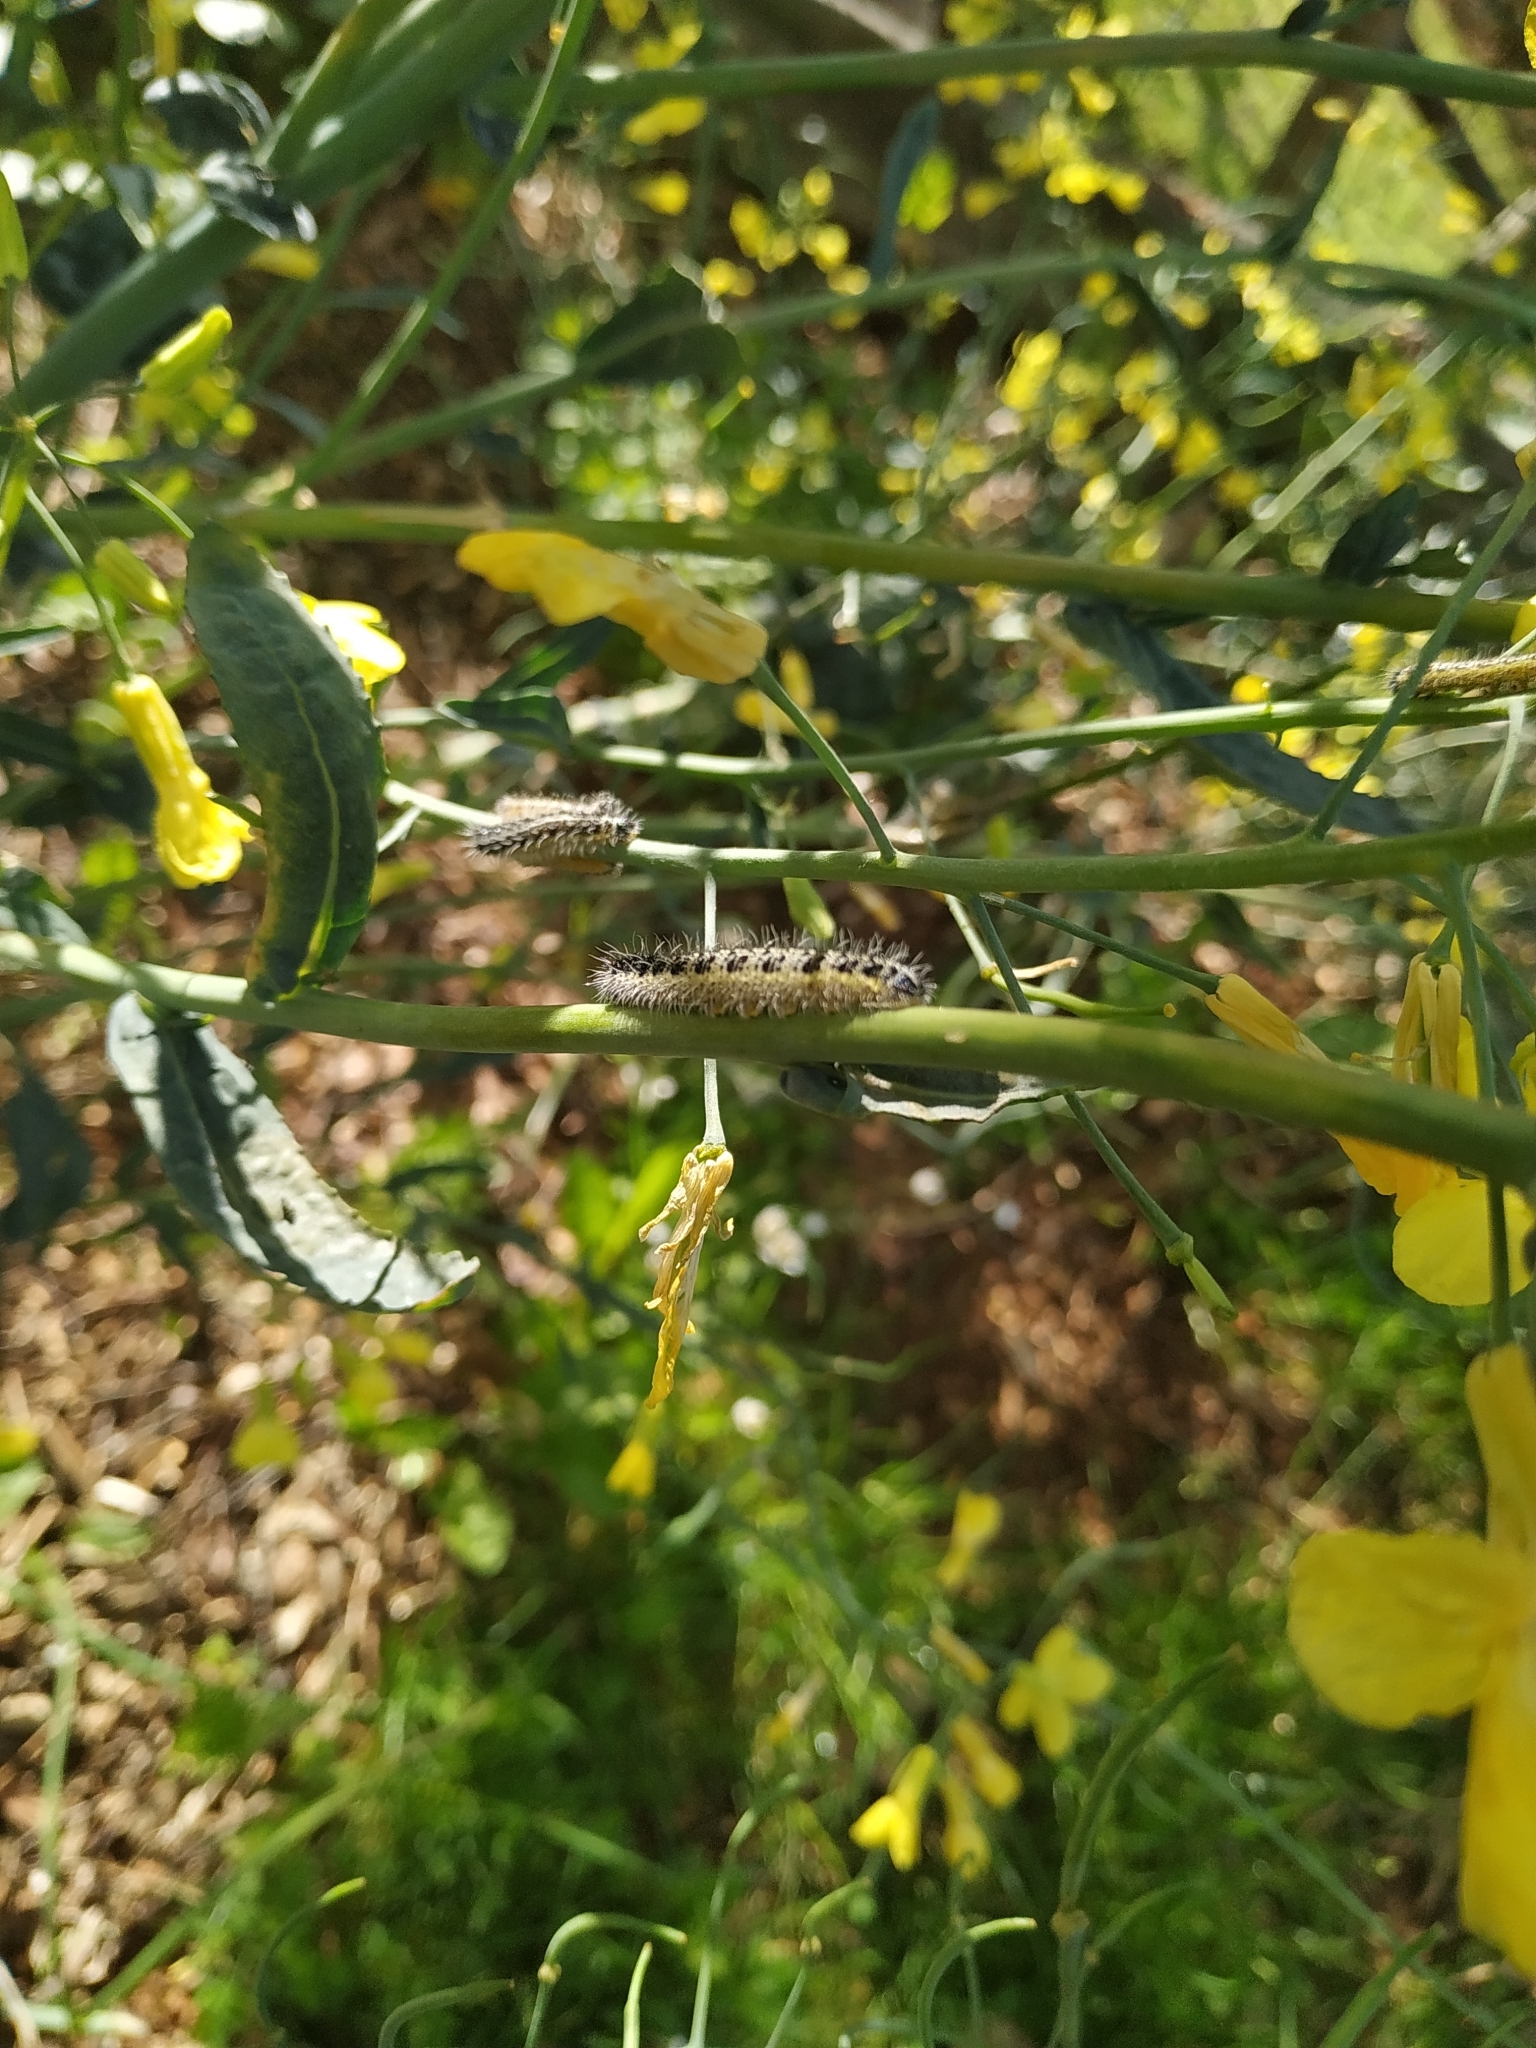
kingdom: Animalia
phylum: Arthropoda
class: Insecta
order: Lepidoptera
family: Pieridae
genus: Pieris
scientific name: Pieris brassicae
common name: Large white
